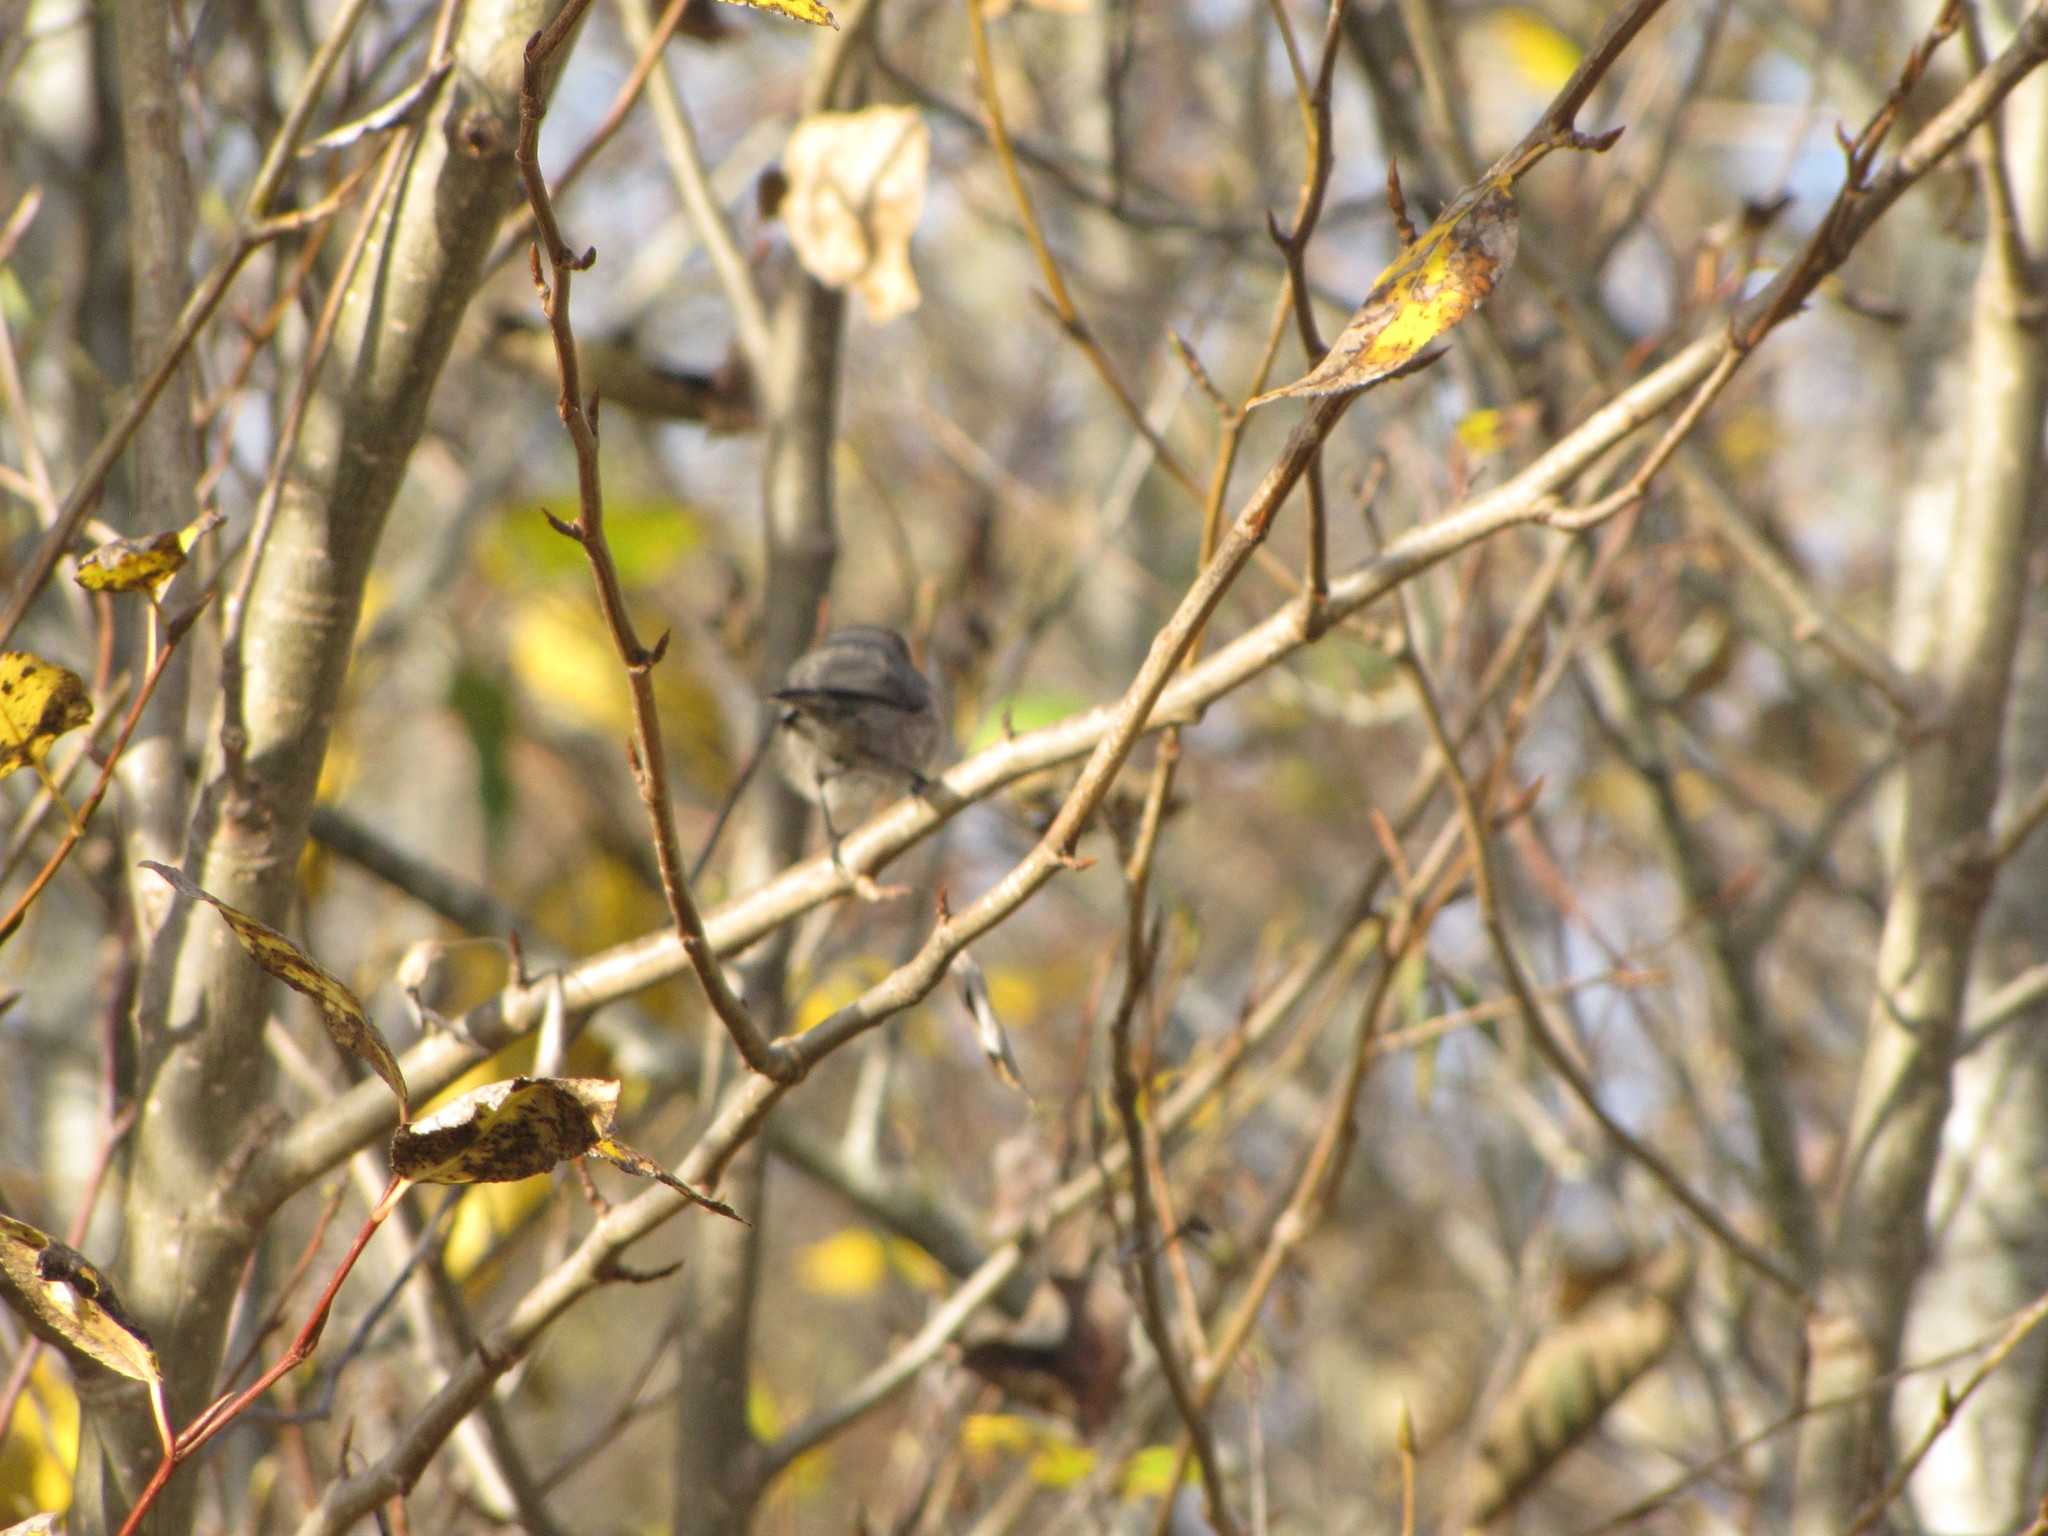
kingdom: Animalia
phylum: Chordata
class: Aves
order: Passeriformes
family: Aegithalidae
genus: Psaltriparus
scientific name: Psaltriparus minimus
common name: American bushtit
